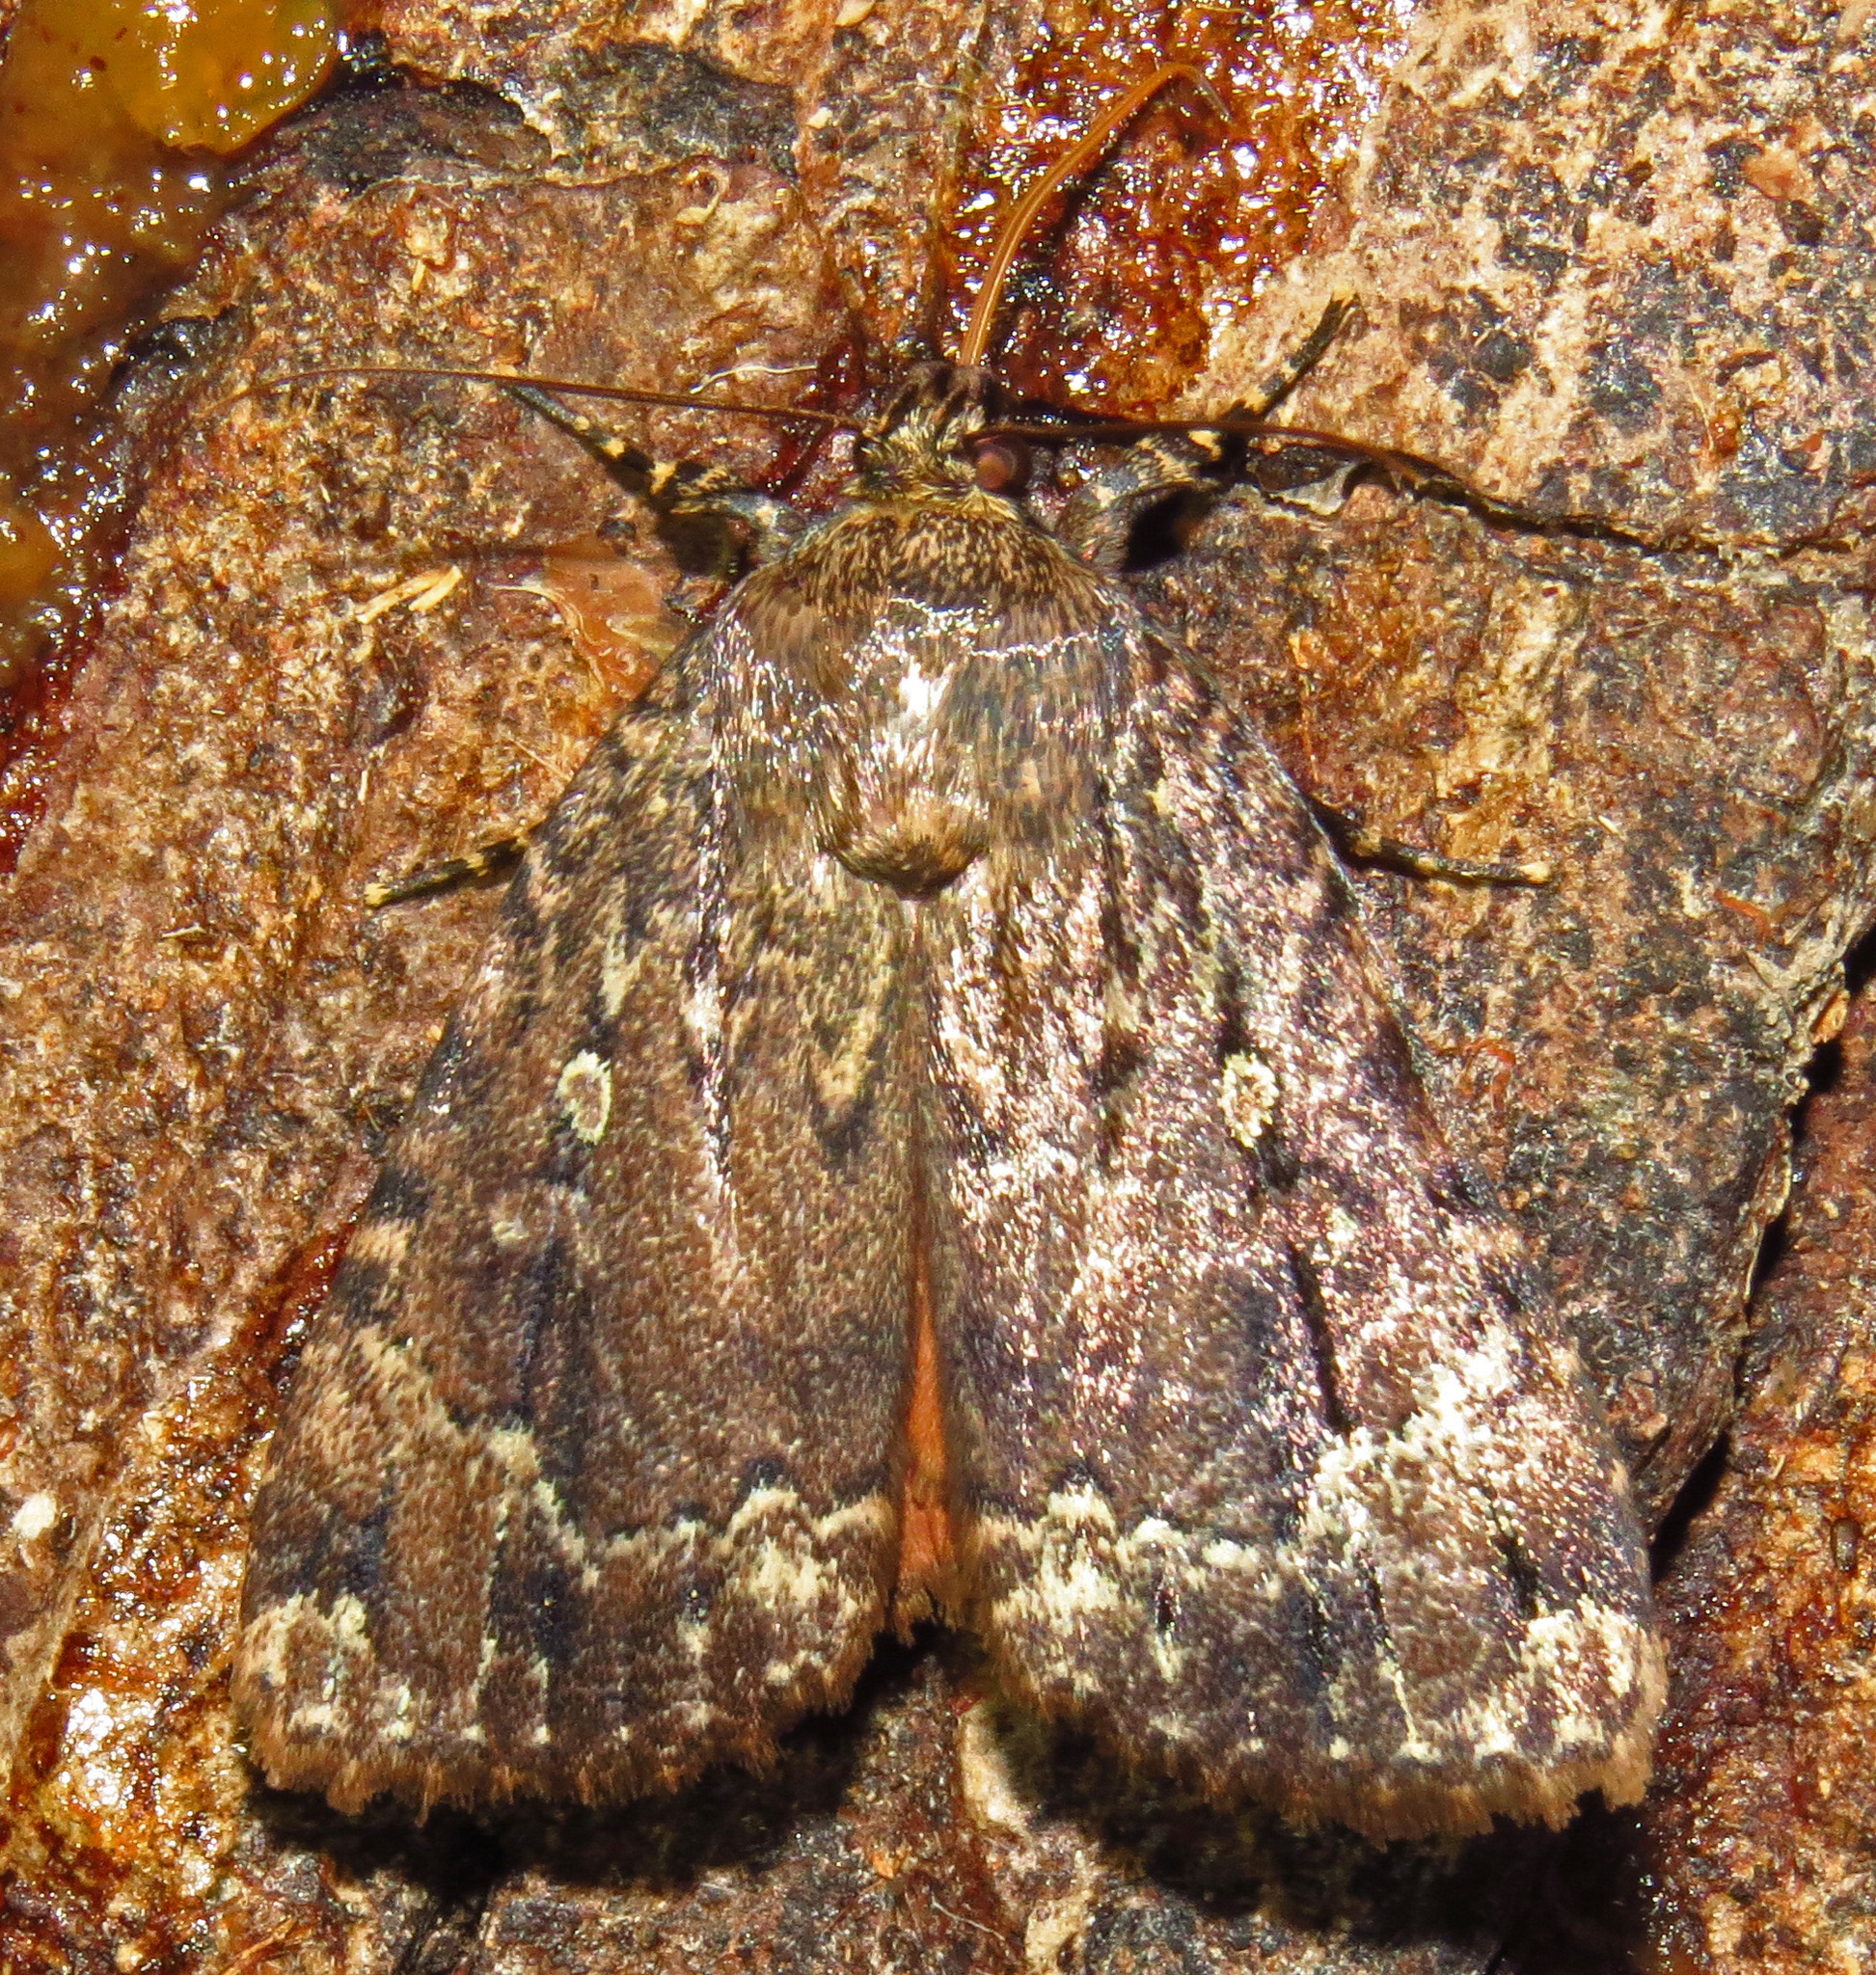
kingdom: Animalia
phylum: Arthropoda
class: Insecta
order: Lepidoptera
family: Noctuidae
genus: Amphipyra
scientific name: Amphipyra pyramidoides
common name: American copper underwing
